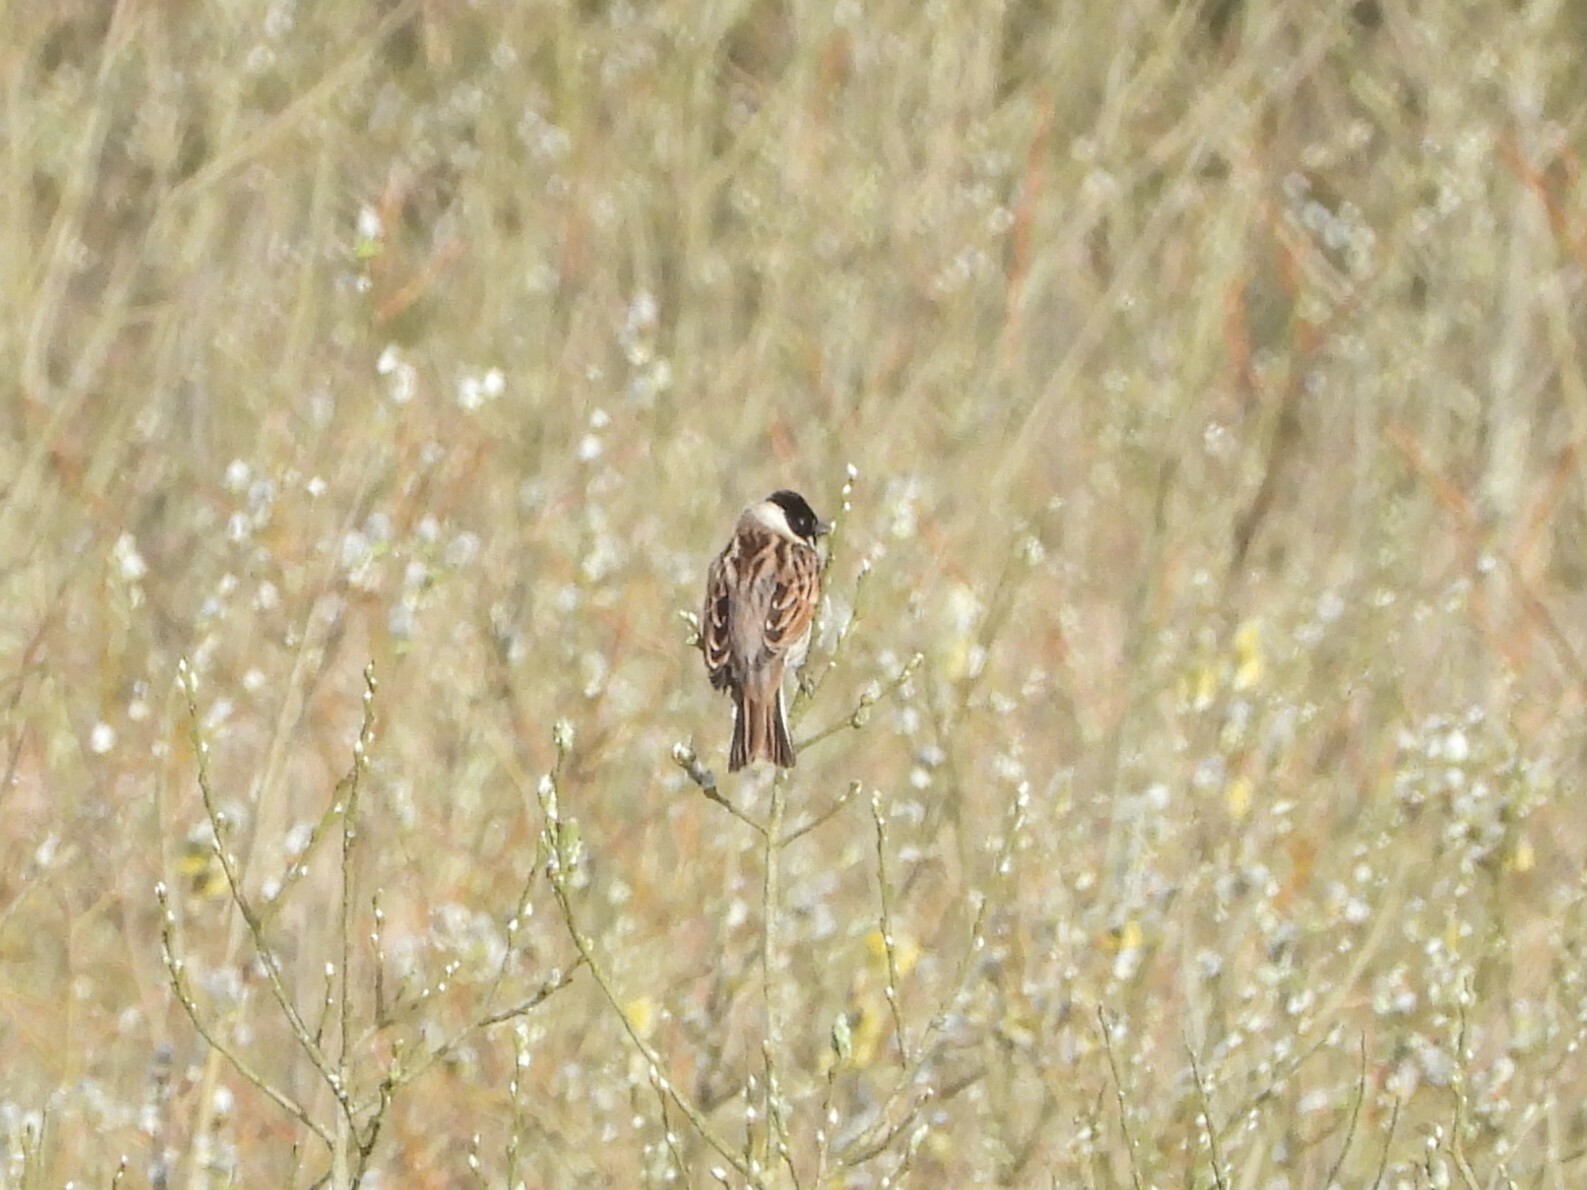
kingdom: Animalia
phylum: Chordata
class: Aves
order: Passeriformes
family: Emberizidae
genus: Emberiza
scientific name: Emberiza schoeniclus
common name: Reed bunting
